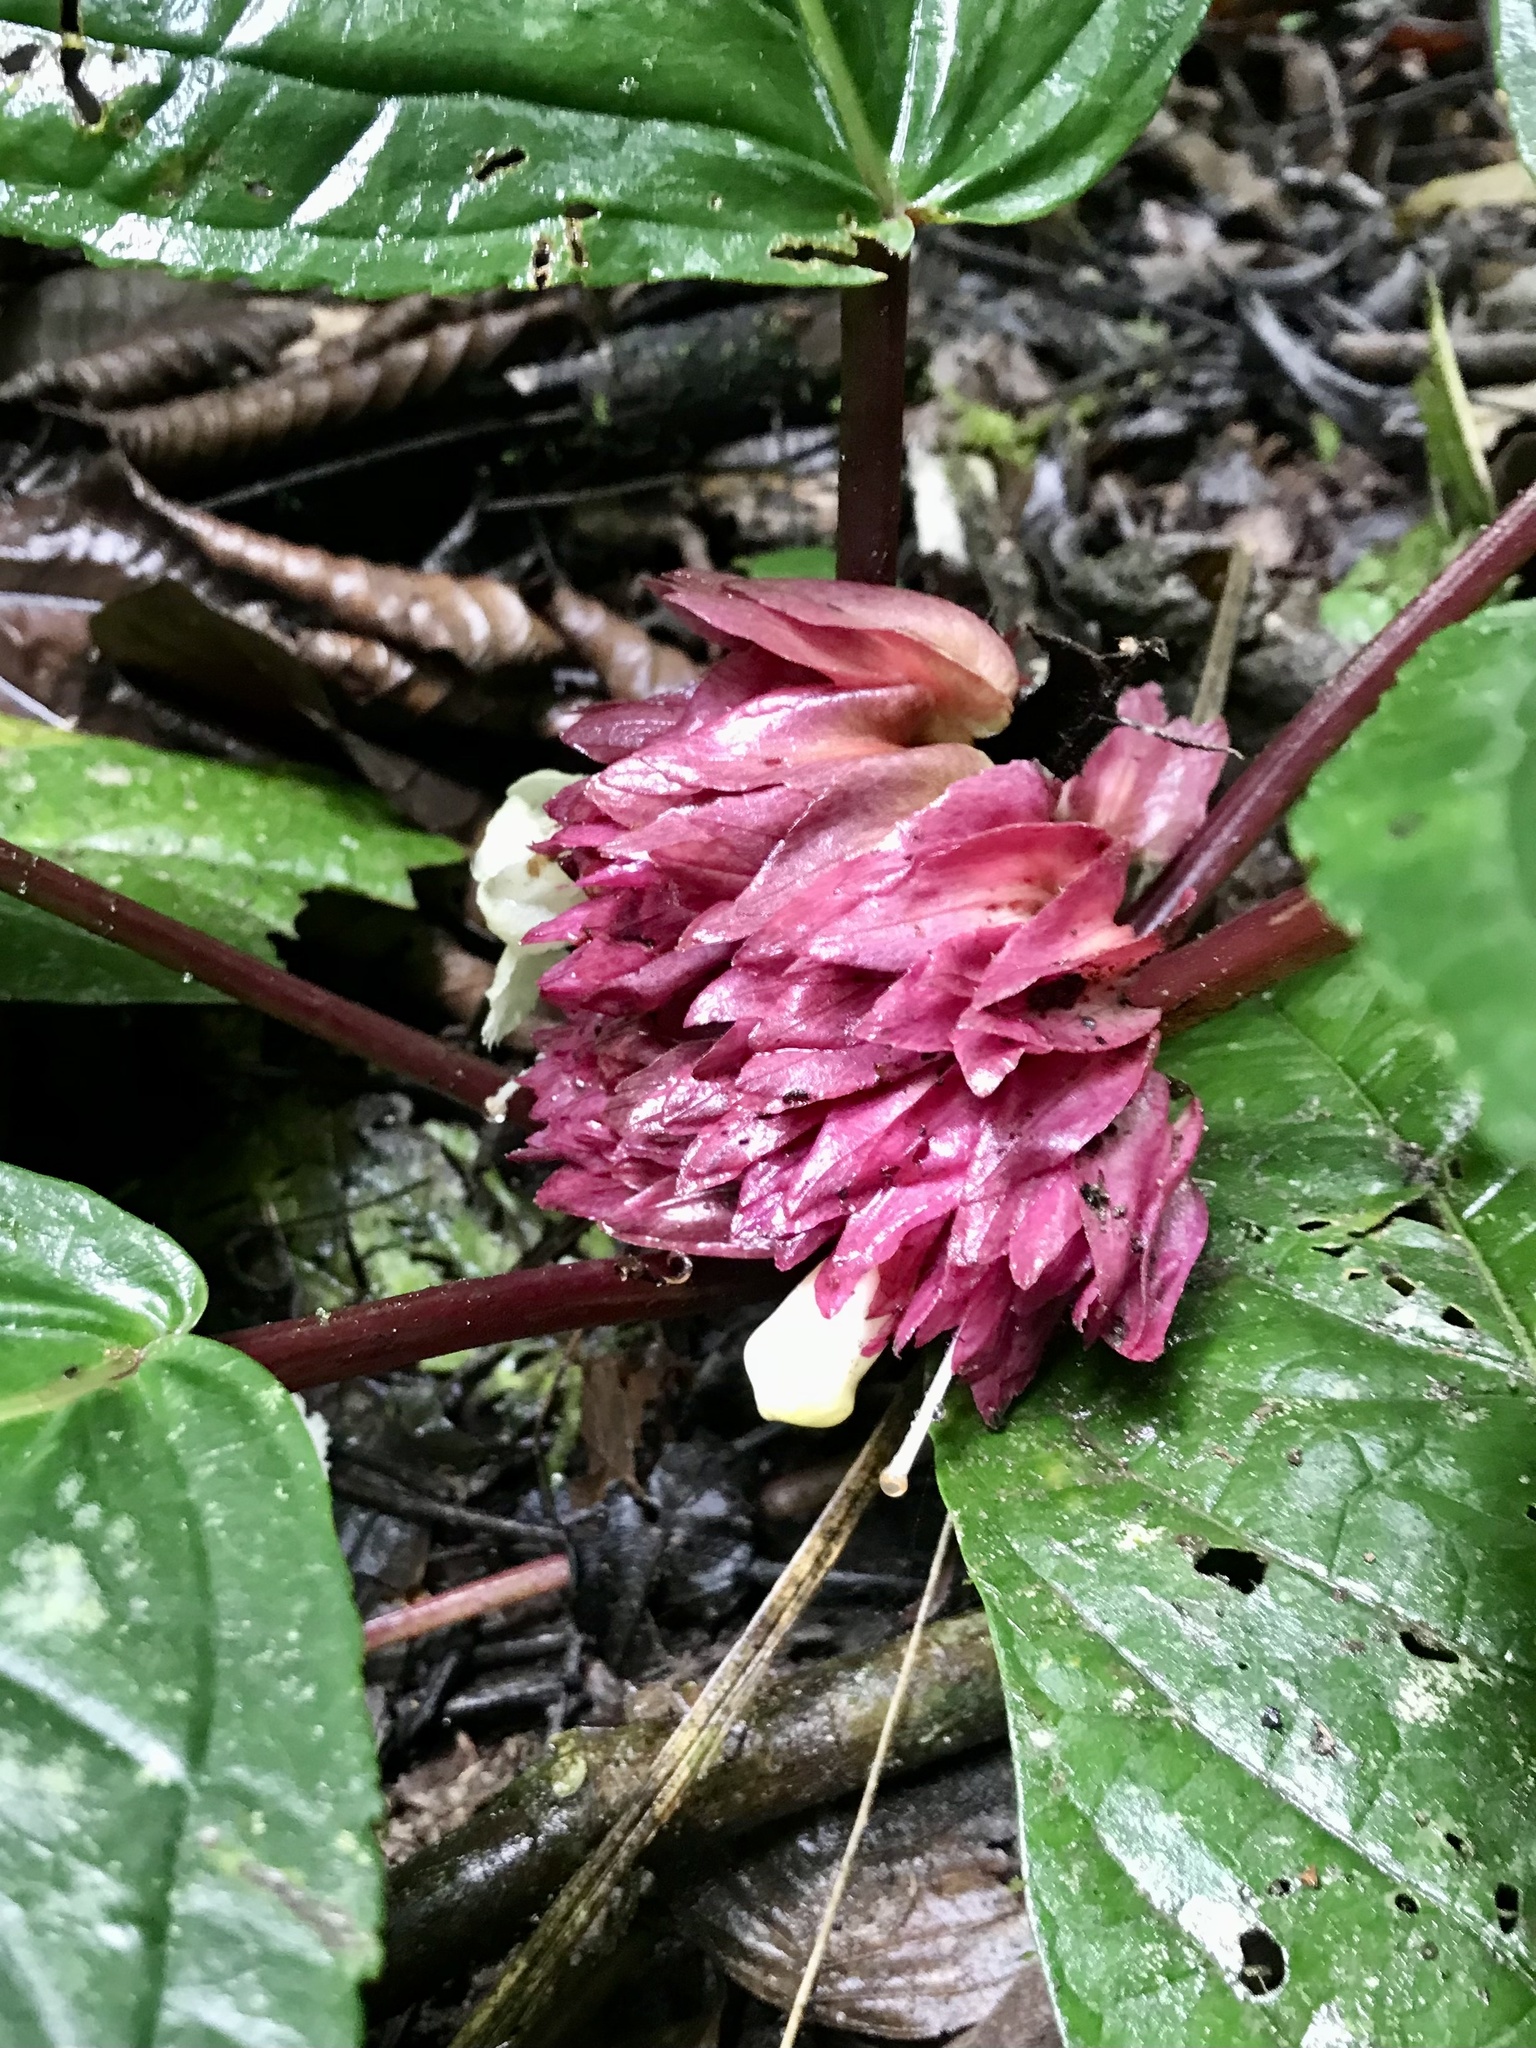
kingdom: Plantae
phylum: Tracheophyta
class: Magnoliopsida
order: Lamiales
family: Gesneriaceae
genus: Drymonia
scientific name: Drymonia turrialvae
